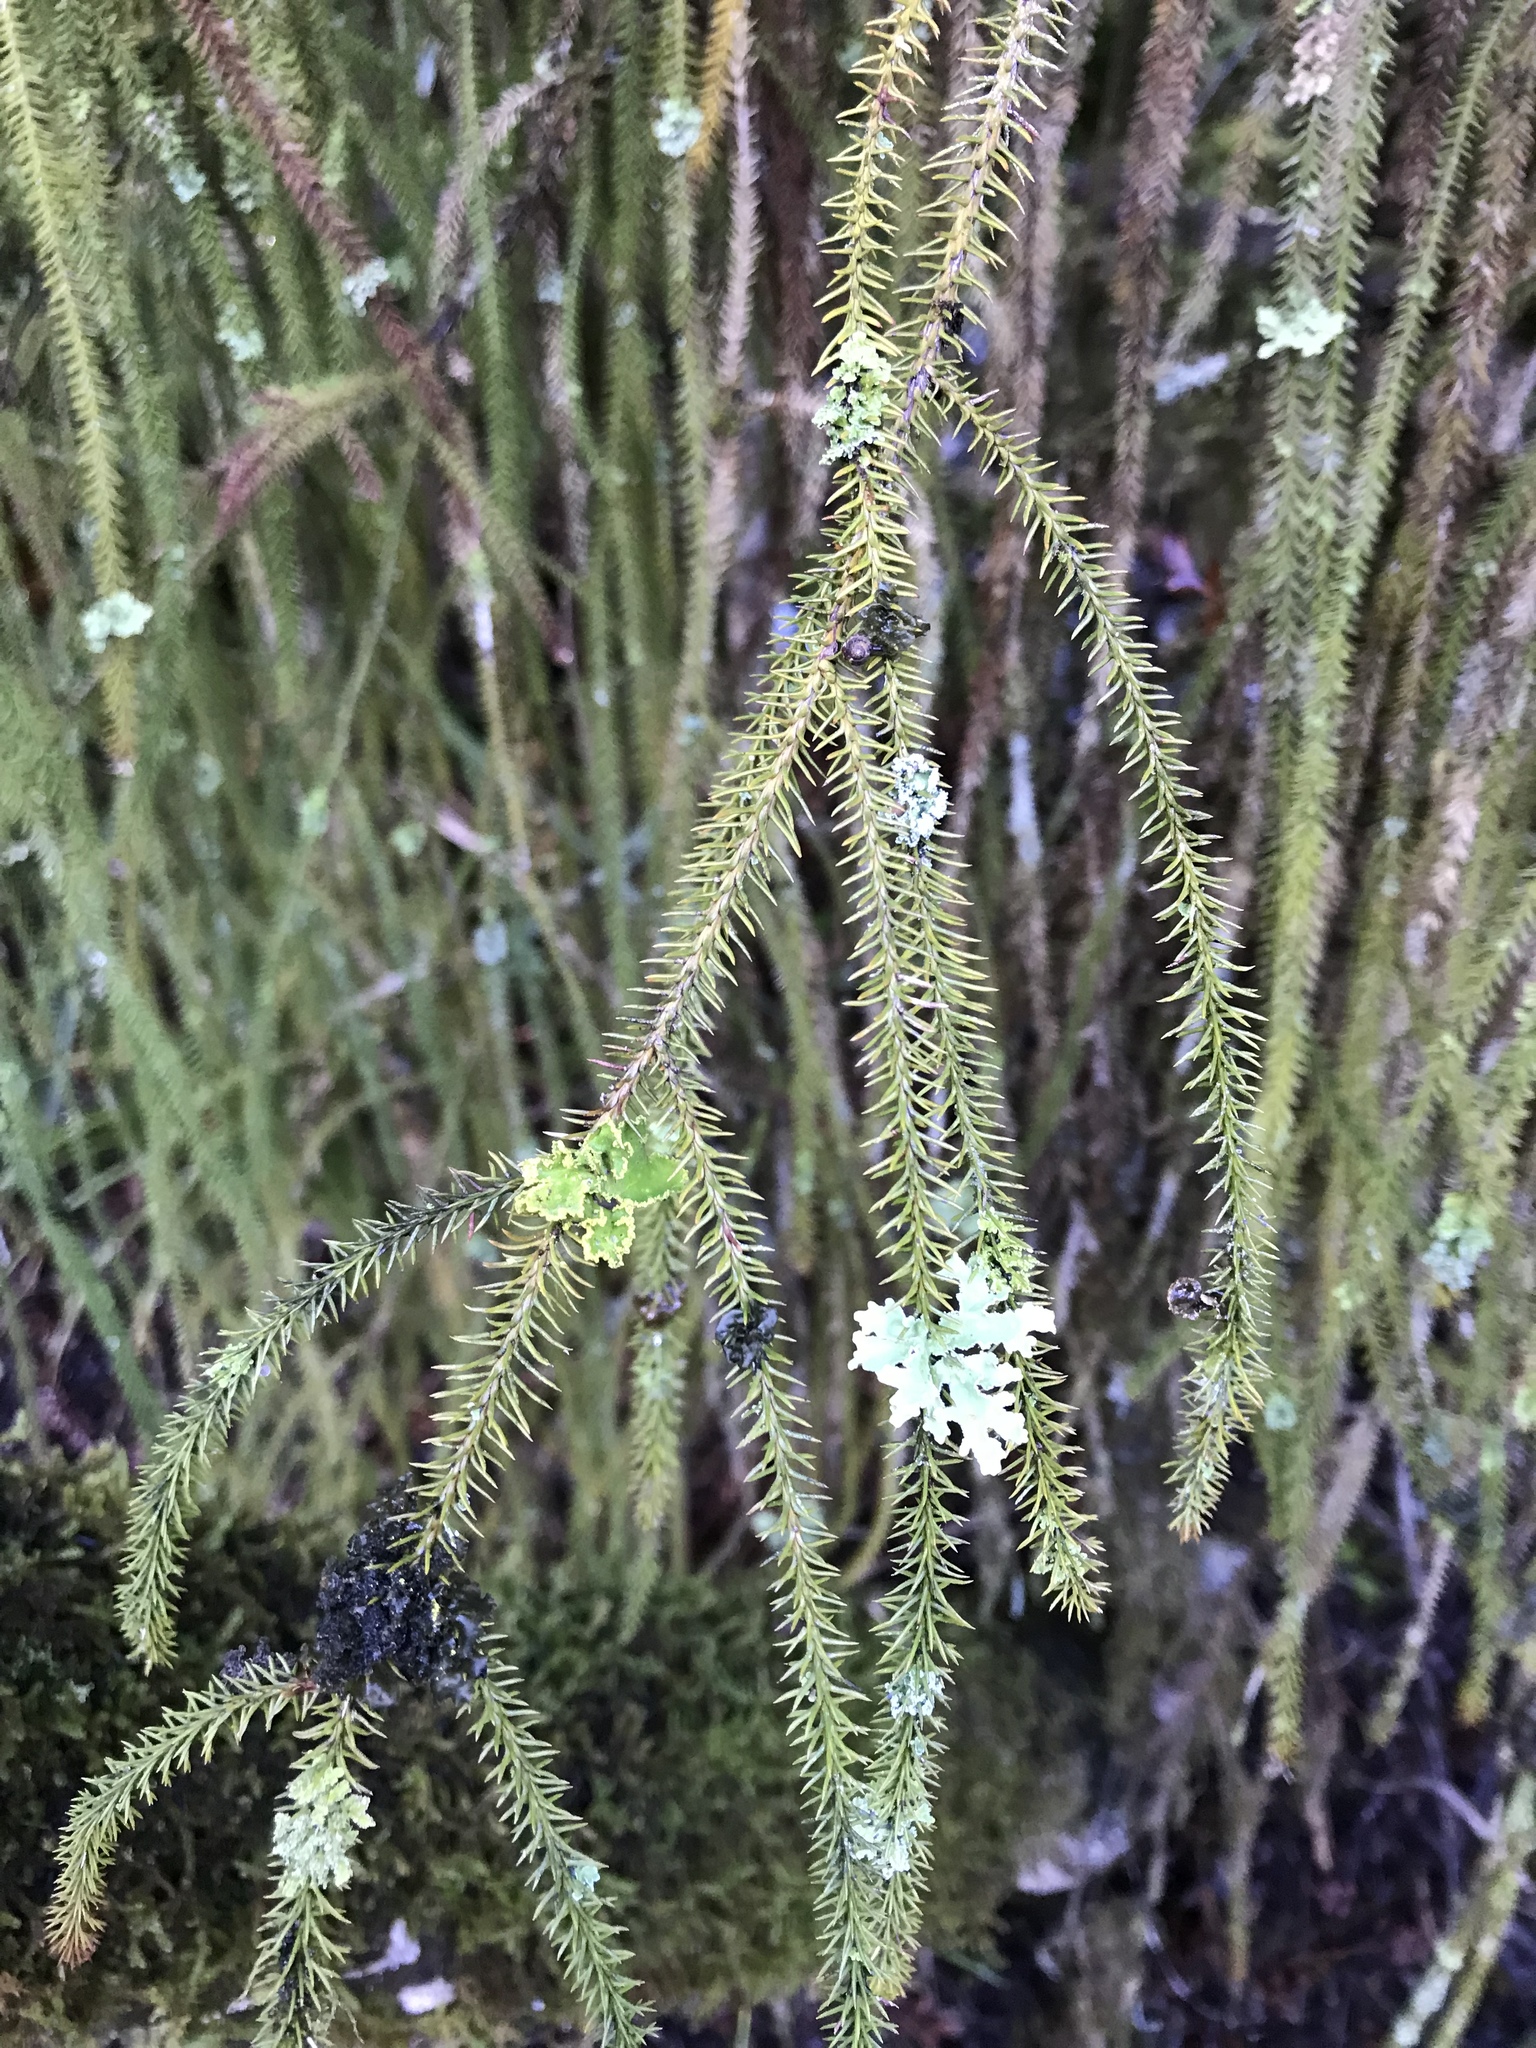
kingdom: Plantae
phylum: Tracheophyta
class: Pinopsida
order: Pinales
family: Podocarpaceae
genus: Dacrydium
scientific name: Dacrydium cupressinum
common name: Red pine
